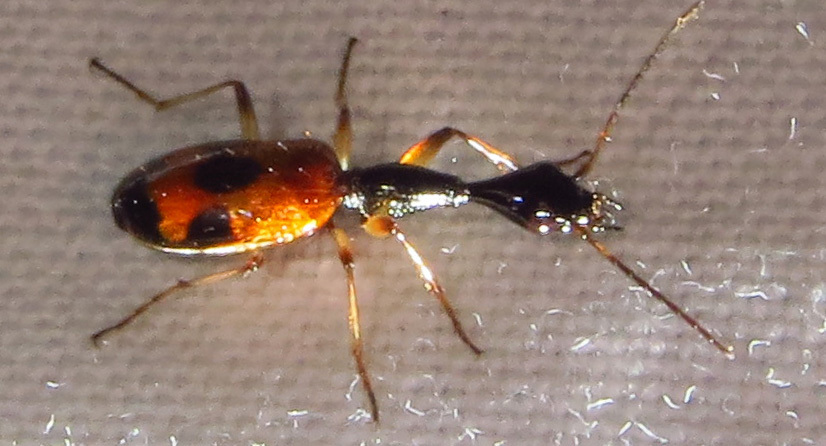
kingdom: Animalia
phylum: Arthropoda
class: Insecta
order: Coleoptera
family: Carabidae
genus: Colliuris
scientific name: Colliuris pensylvanica
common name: Long-necked ground beetle
